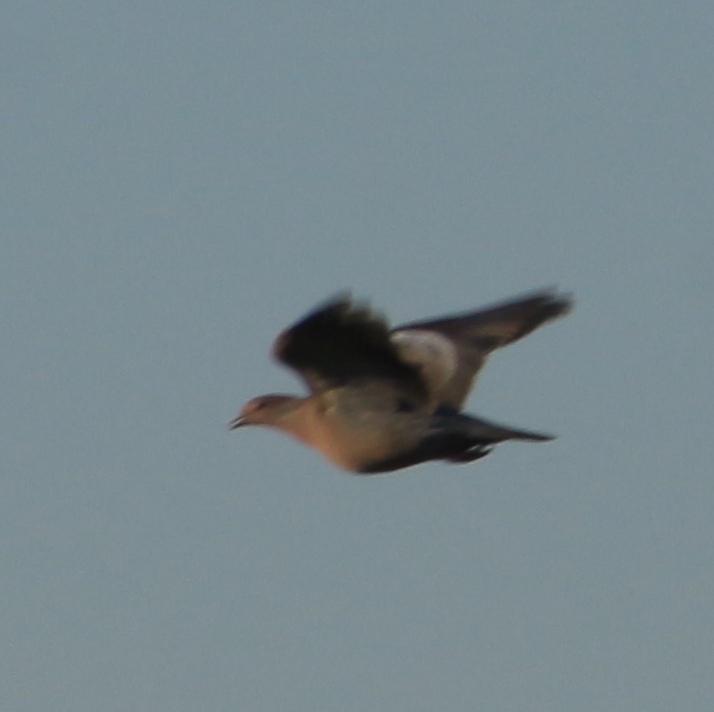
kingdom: Animalia
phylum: Chordata
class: Aves
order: Columbiformes
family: Columbidae
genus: Patagioenas
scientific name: Patagioenas picazuro
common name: Picazuro pigeon
